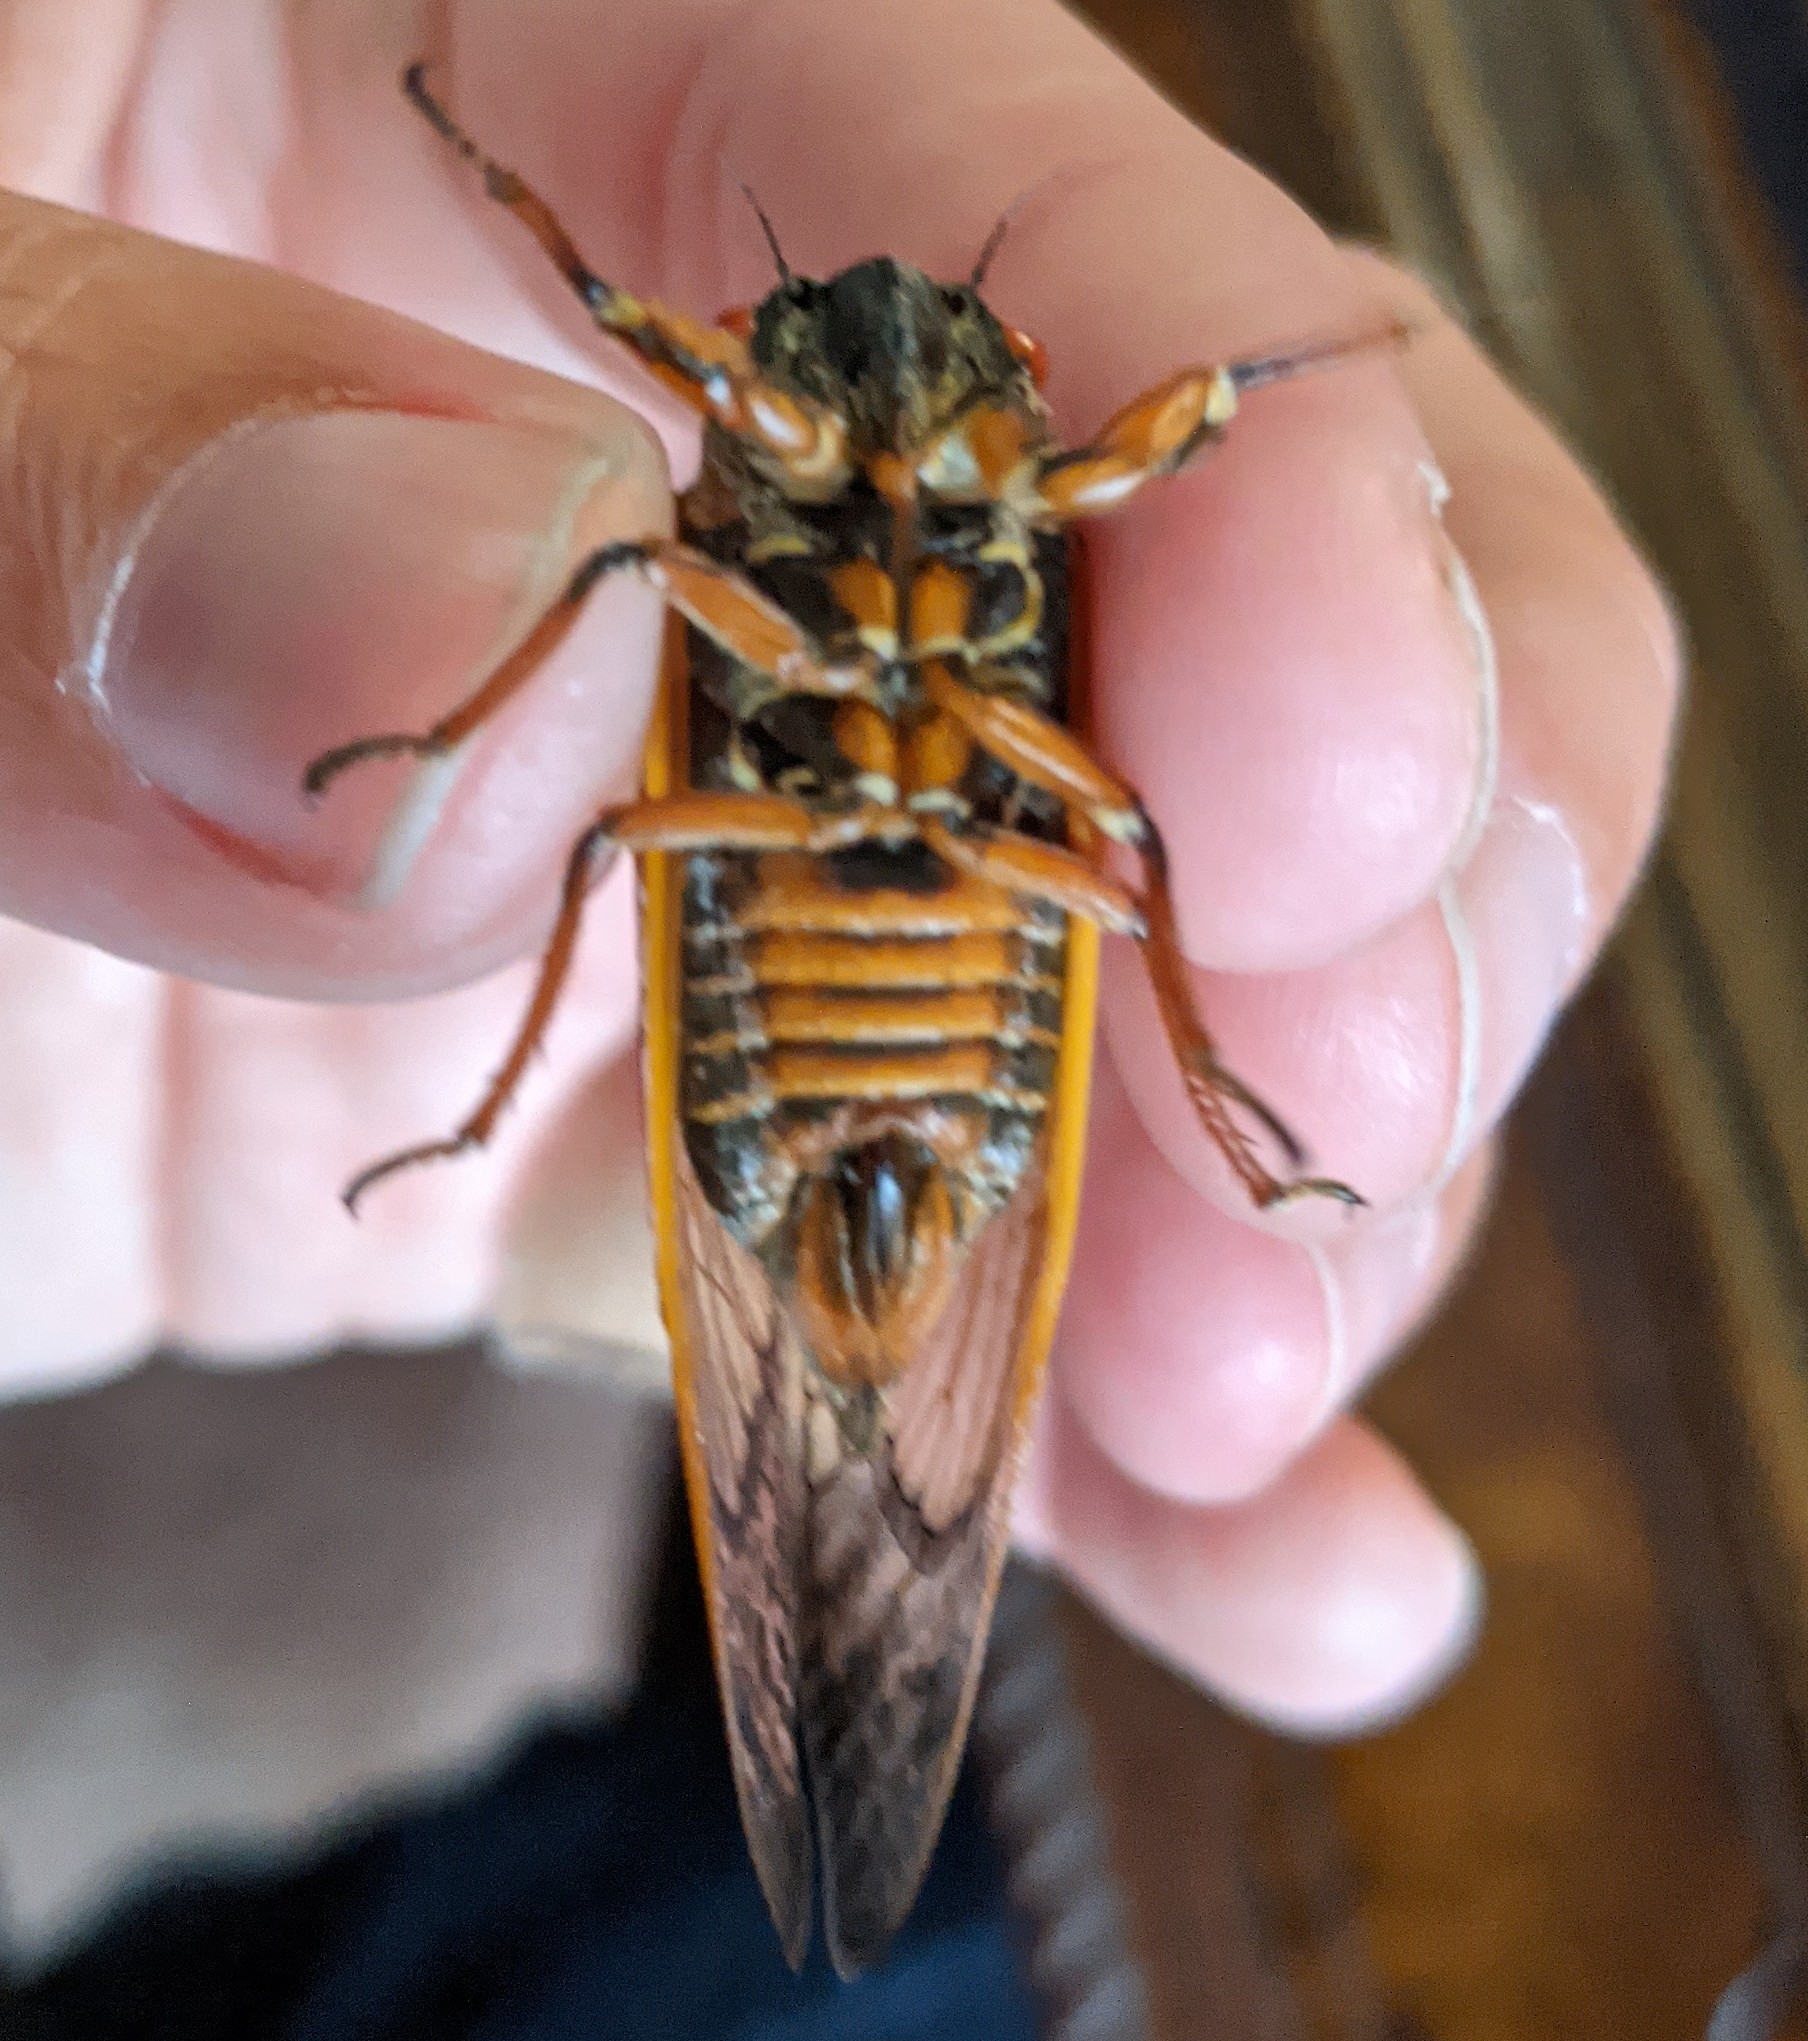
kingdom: Animalia
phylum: Arthropoda
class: Insecta
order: Hemiptera
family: Cicadidae
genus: Magicicada
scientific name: Magicicada septendecim
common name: Periodical cicada
